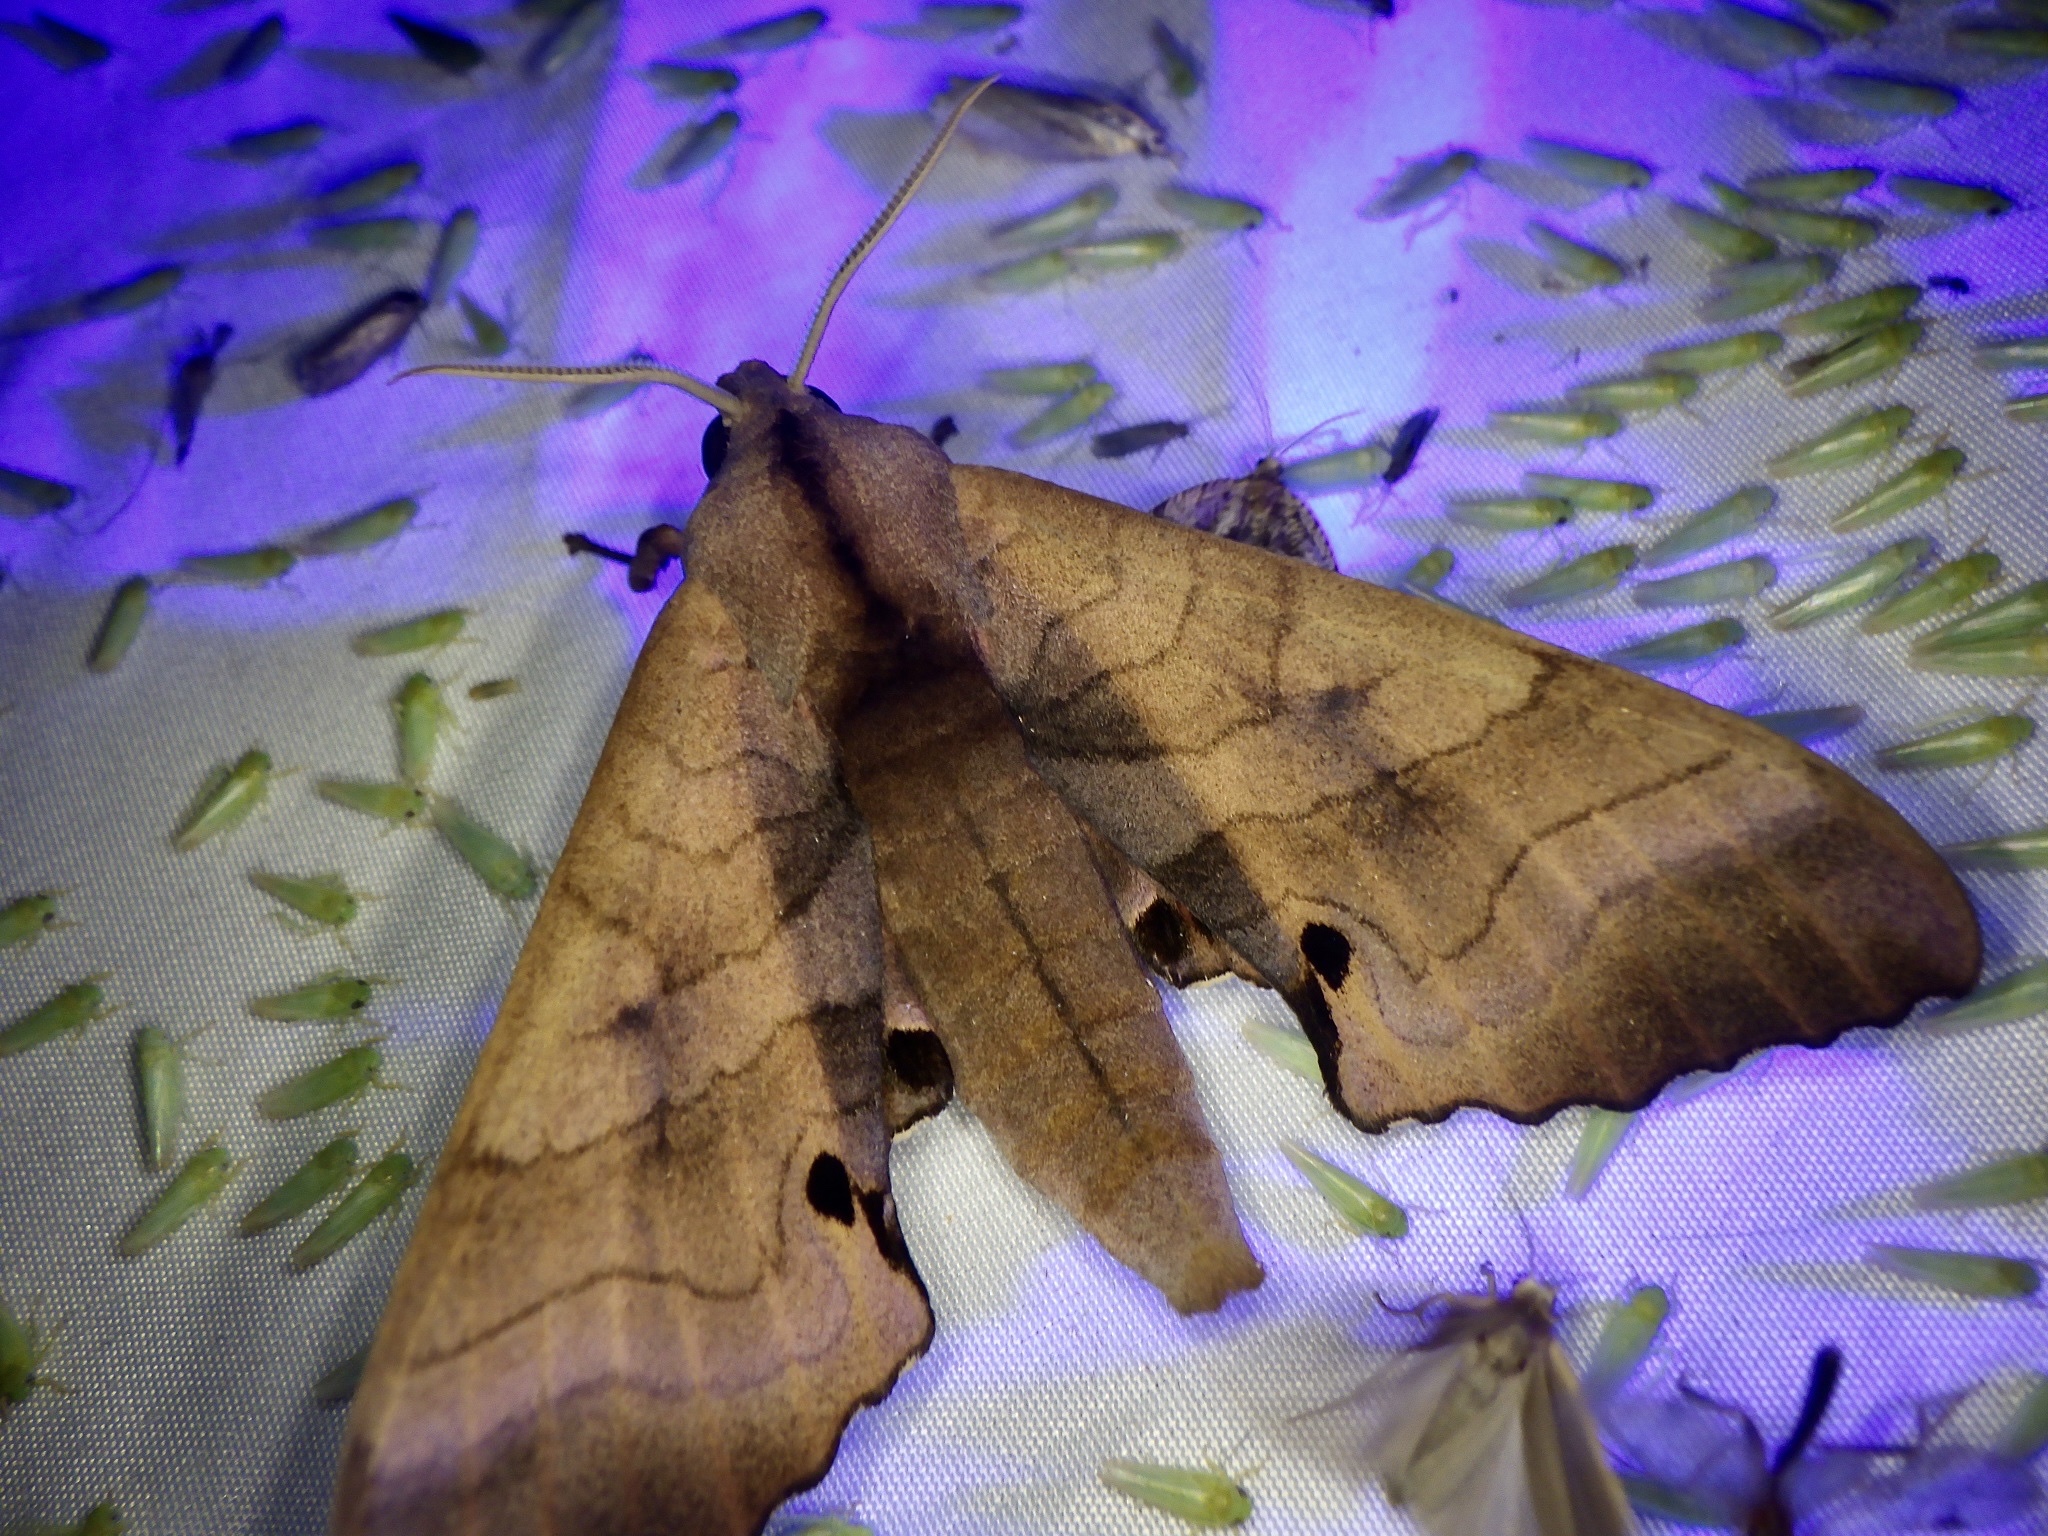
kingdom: Animalia
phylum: Arthropoda
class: Insecta
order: Lepidoptera
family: Sphingidae
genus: Marumba
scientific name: Marumba echephron
